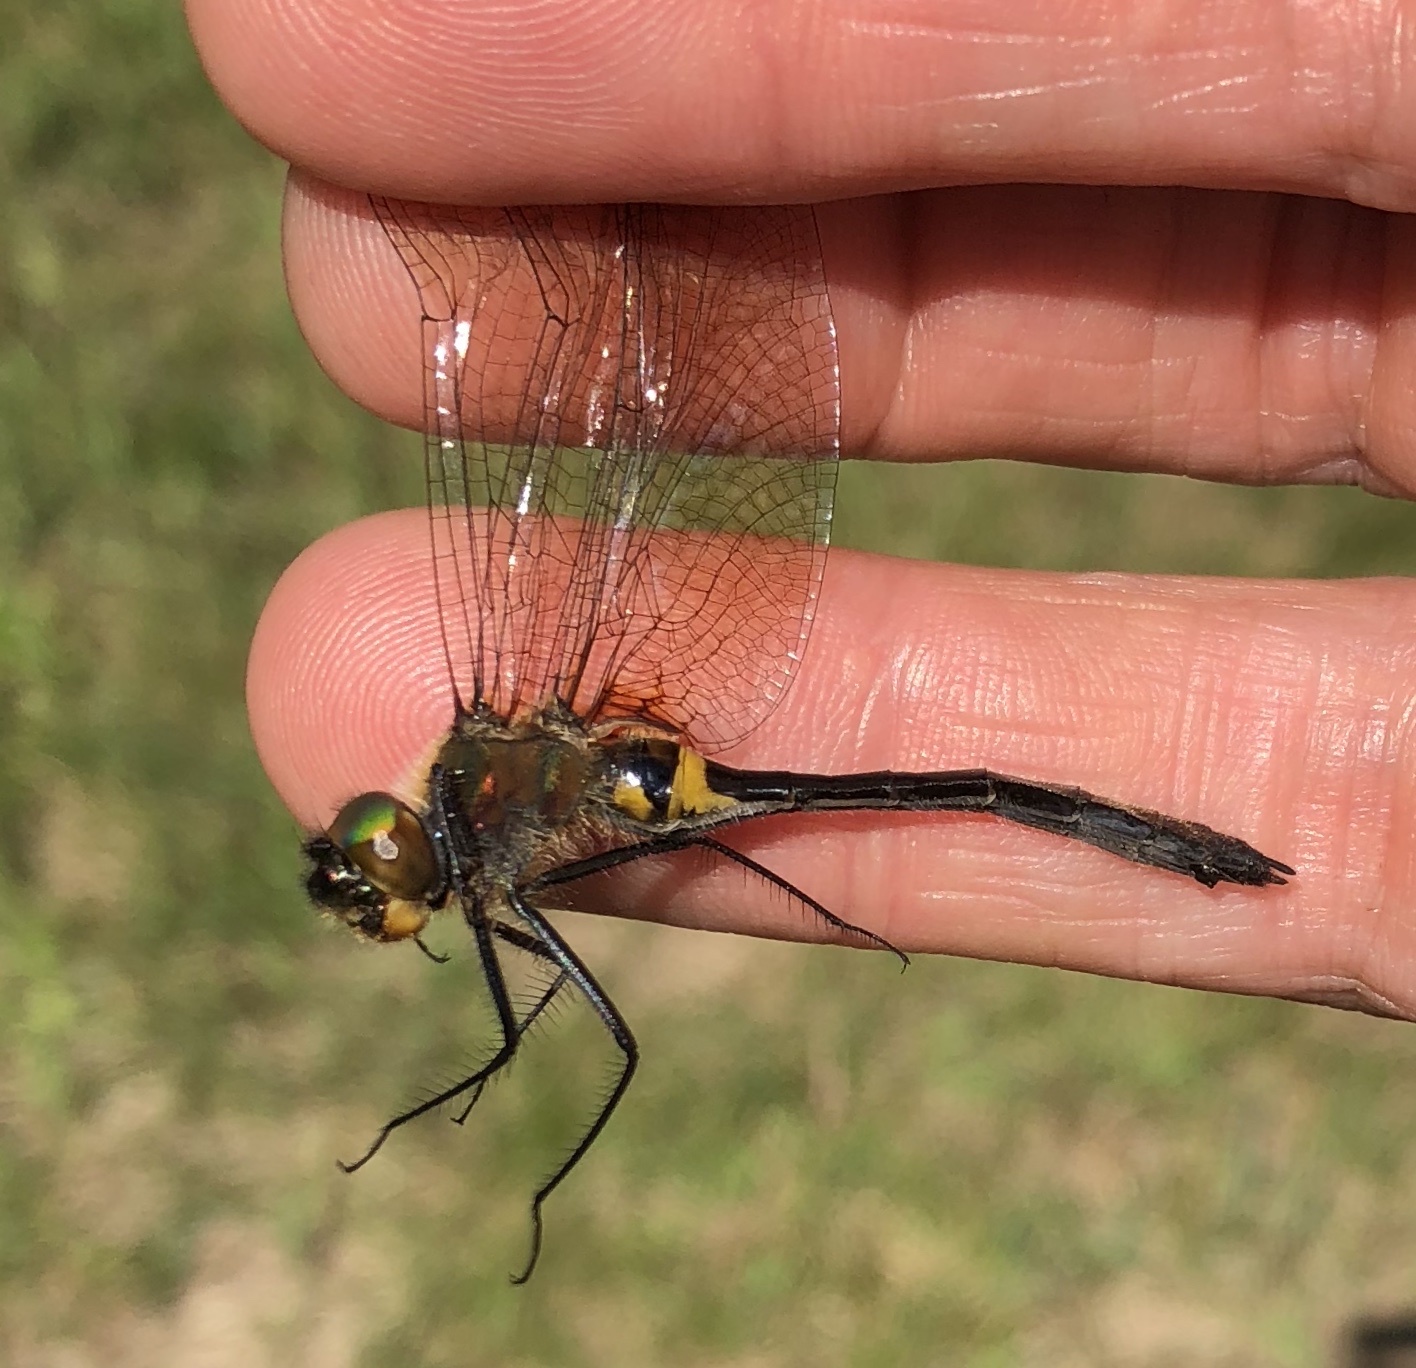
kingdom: Animalia
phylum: Arthropoda
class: Insecta
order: Odonata
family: Corduliidae
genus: Dorocordulia
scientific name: Dorocordulia libera
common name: Racket-tailed emerald
